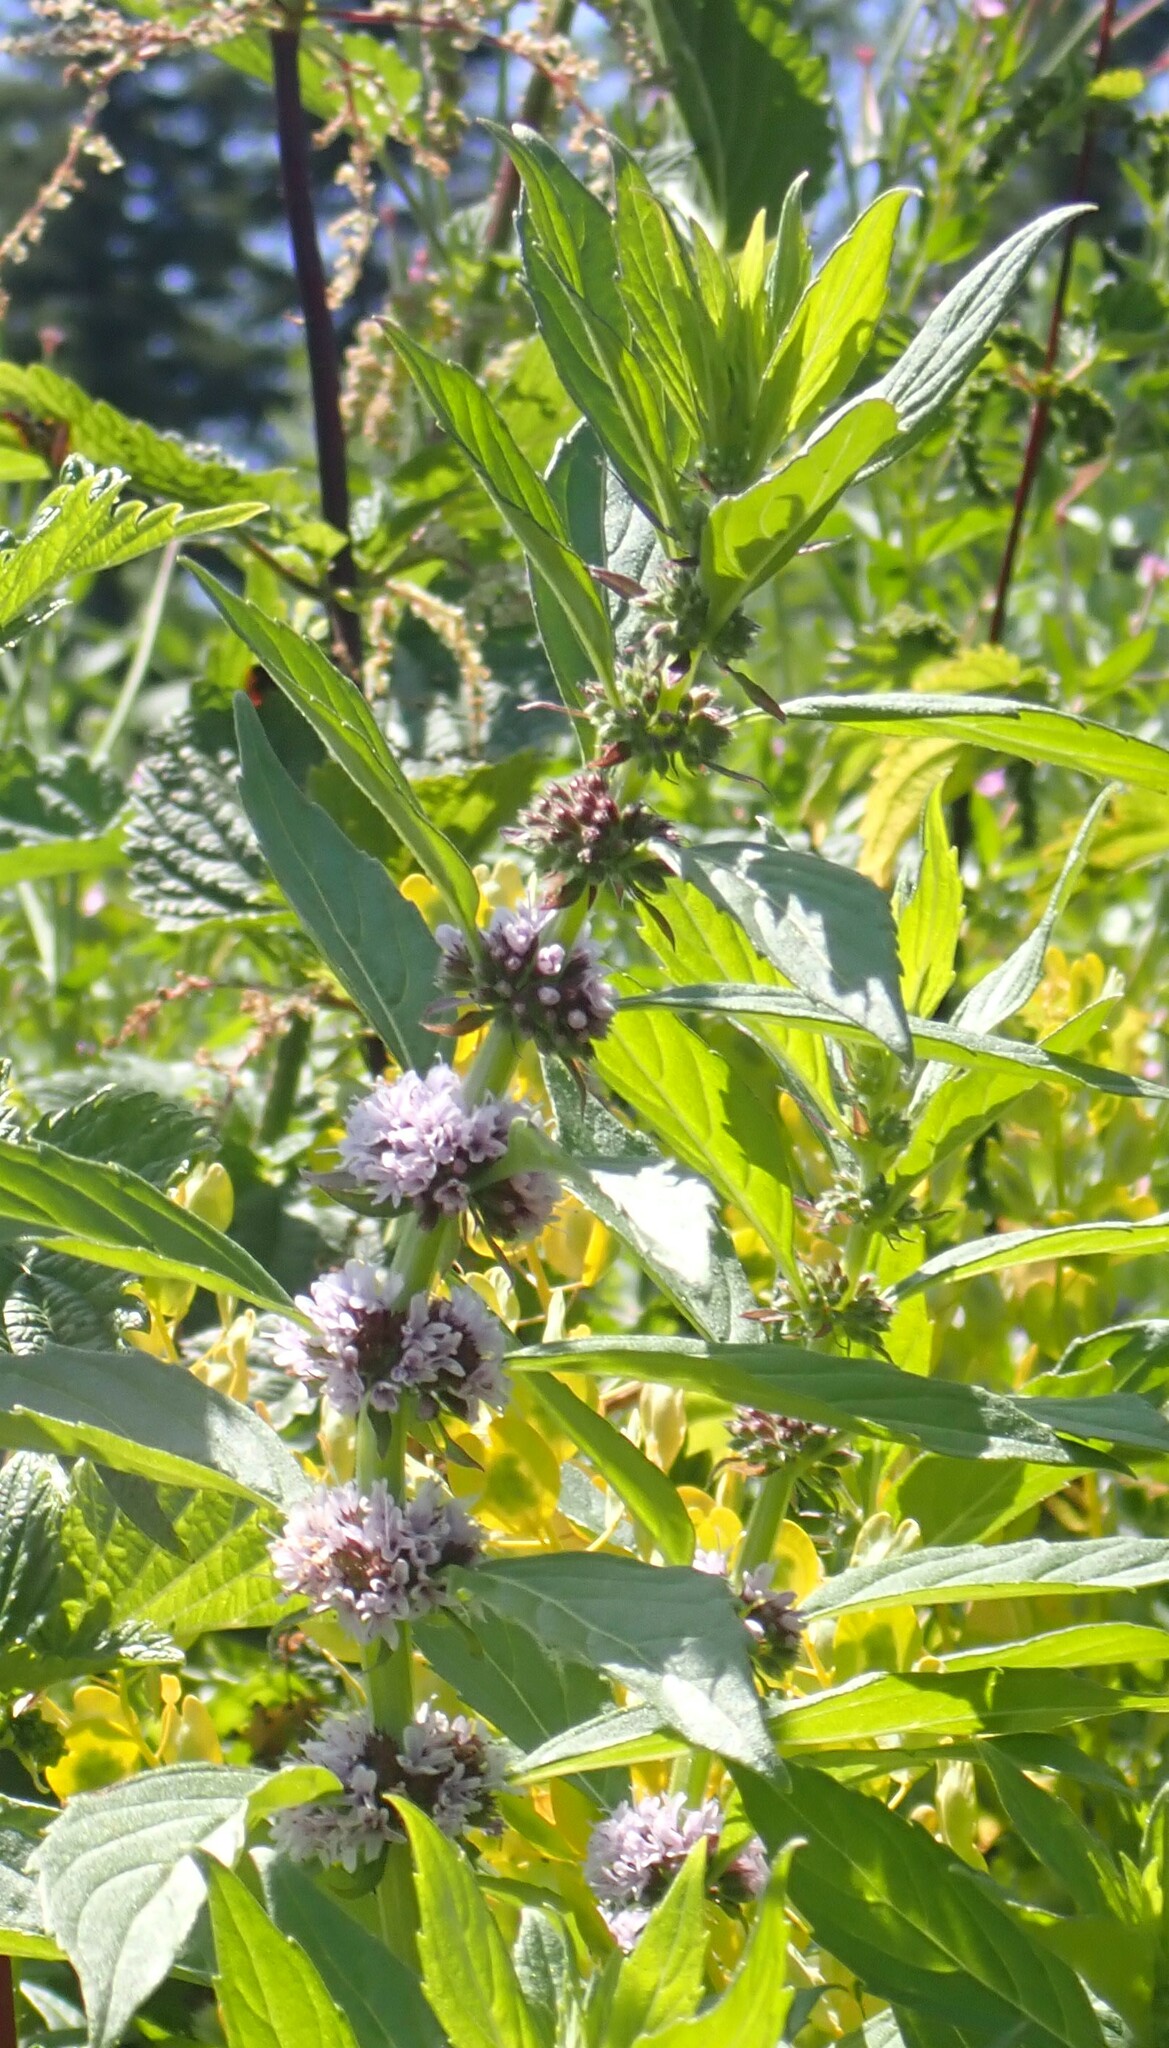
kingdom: Plantae
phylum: Tracheophyta
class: Magnoliopsida
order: Lamiales
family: Lamiaceae
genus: Mentha
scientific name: Mentha canadensis
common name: American corn mint
